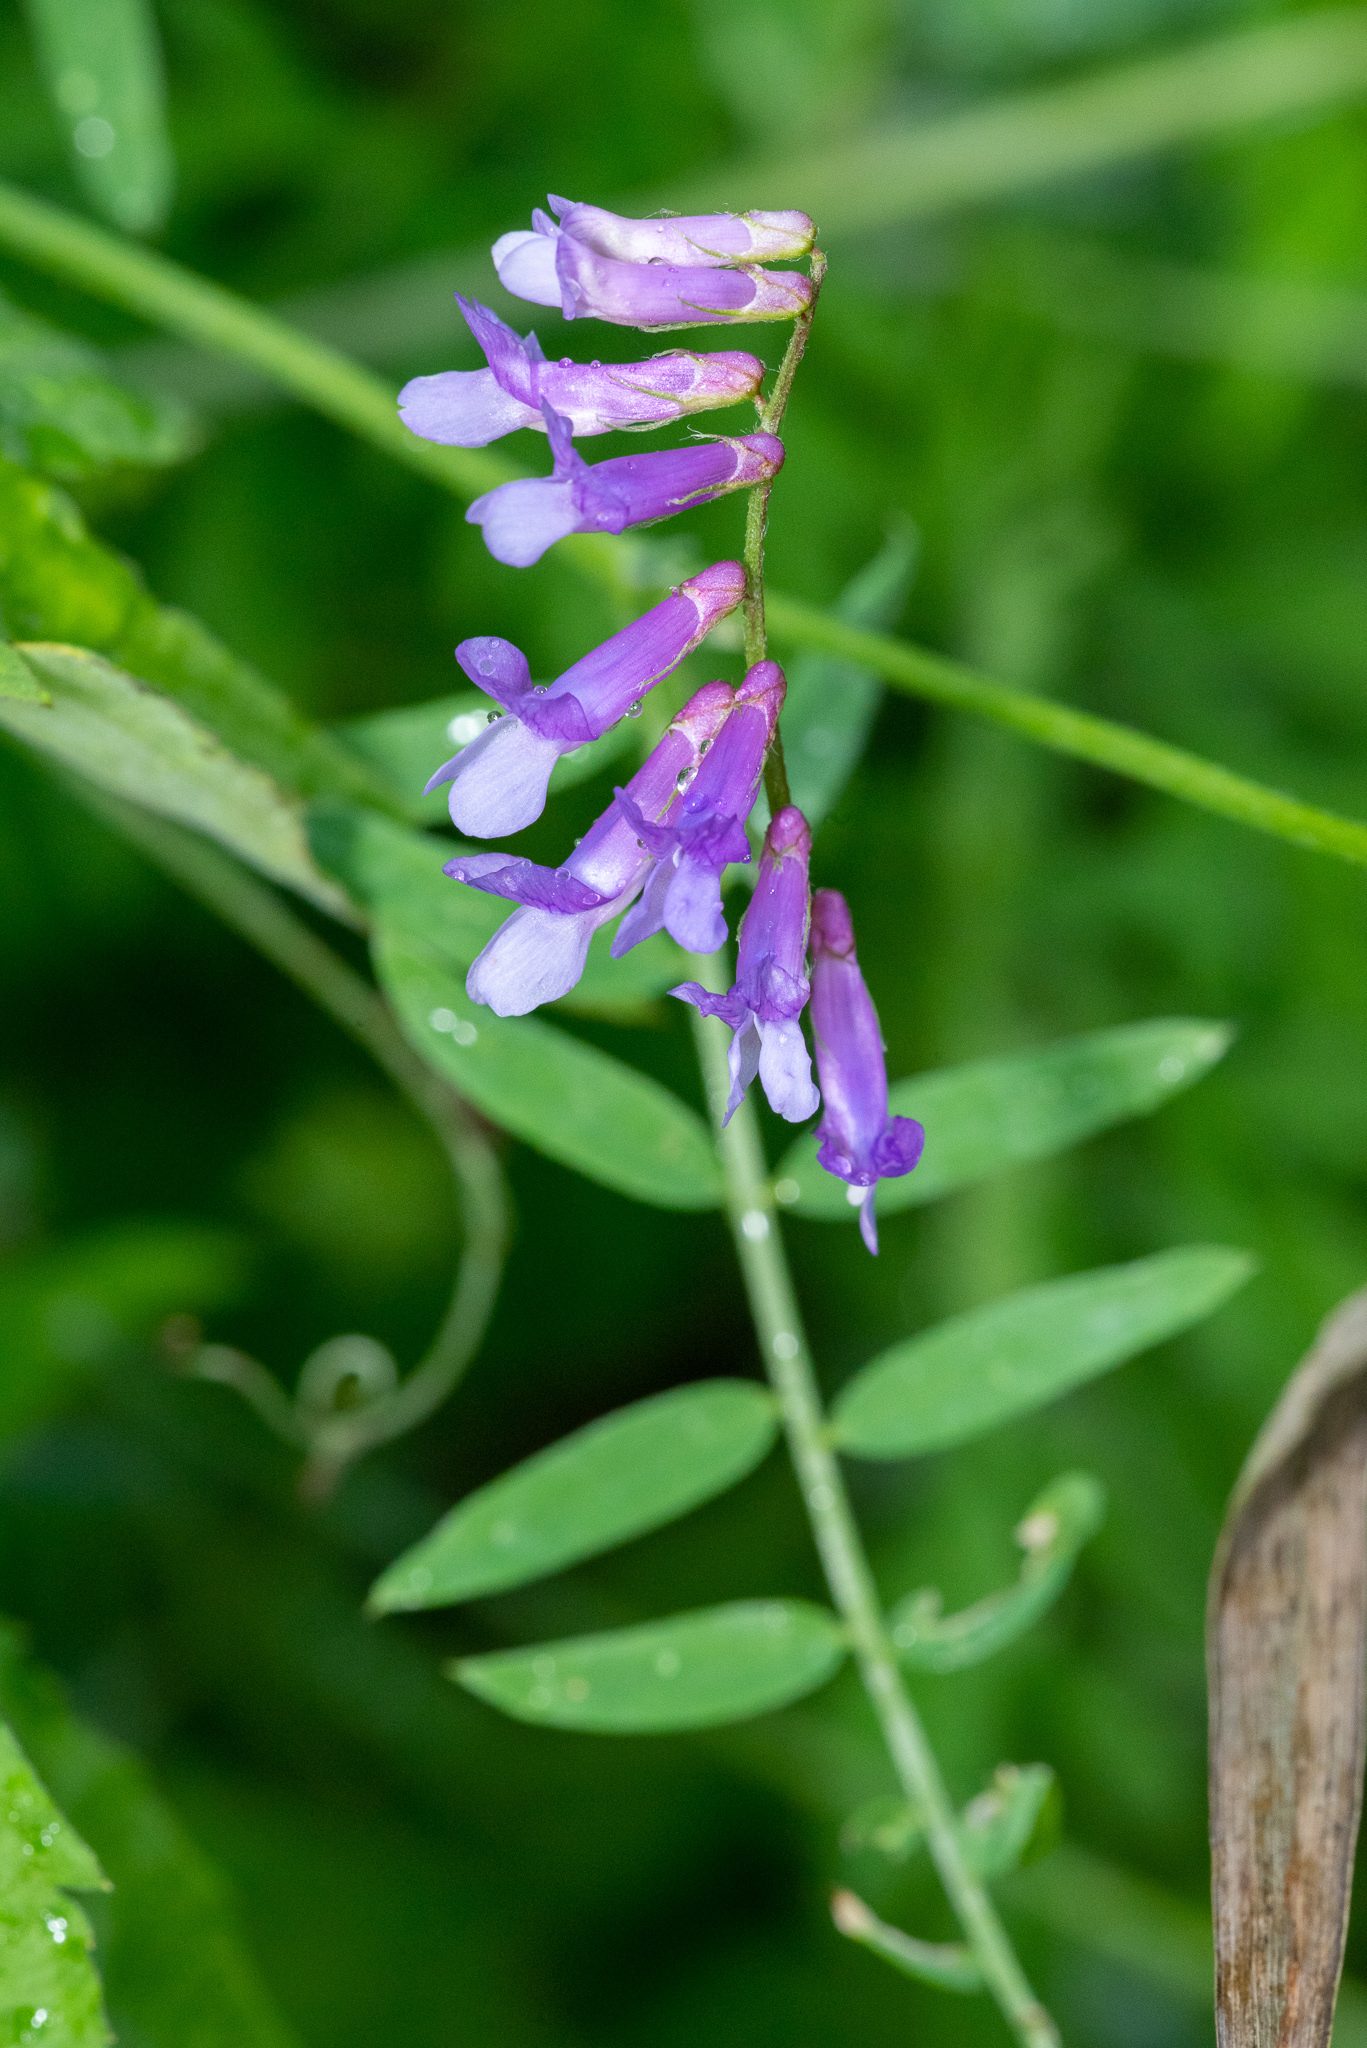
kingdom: Plantae
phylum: Tracheophyta
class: Magnoliopsida
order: Fabales
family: Fabaceae
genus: Vicia
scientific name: Vicia villosa
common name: Fodder vetch
